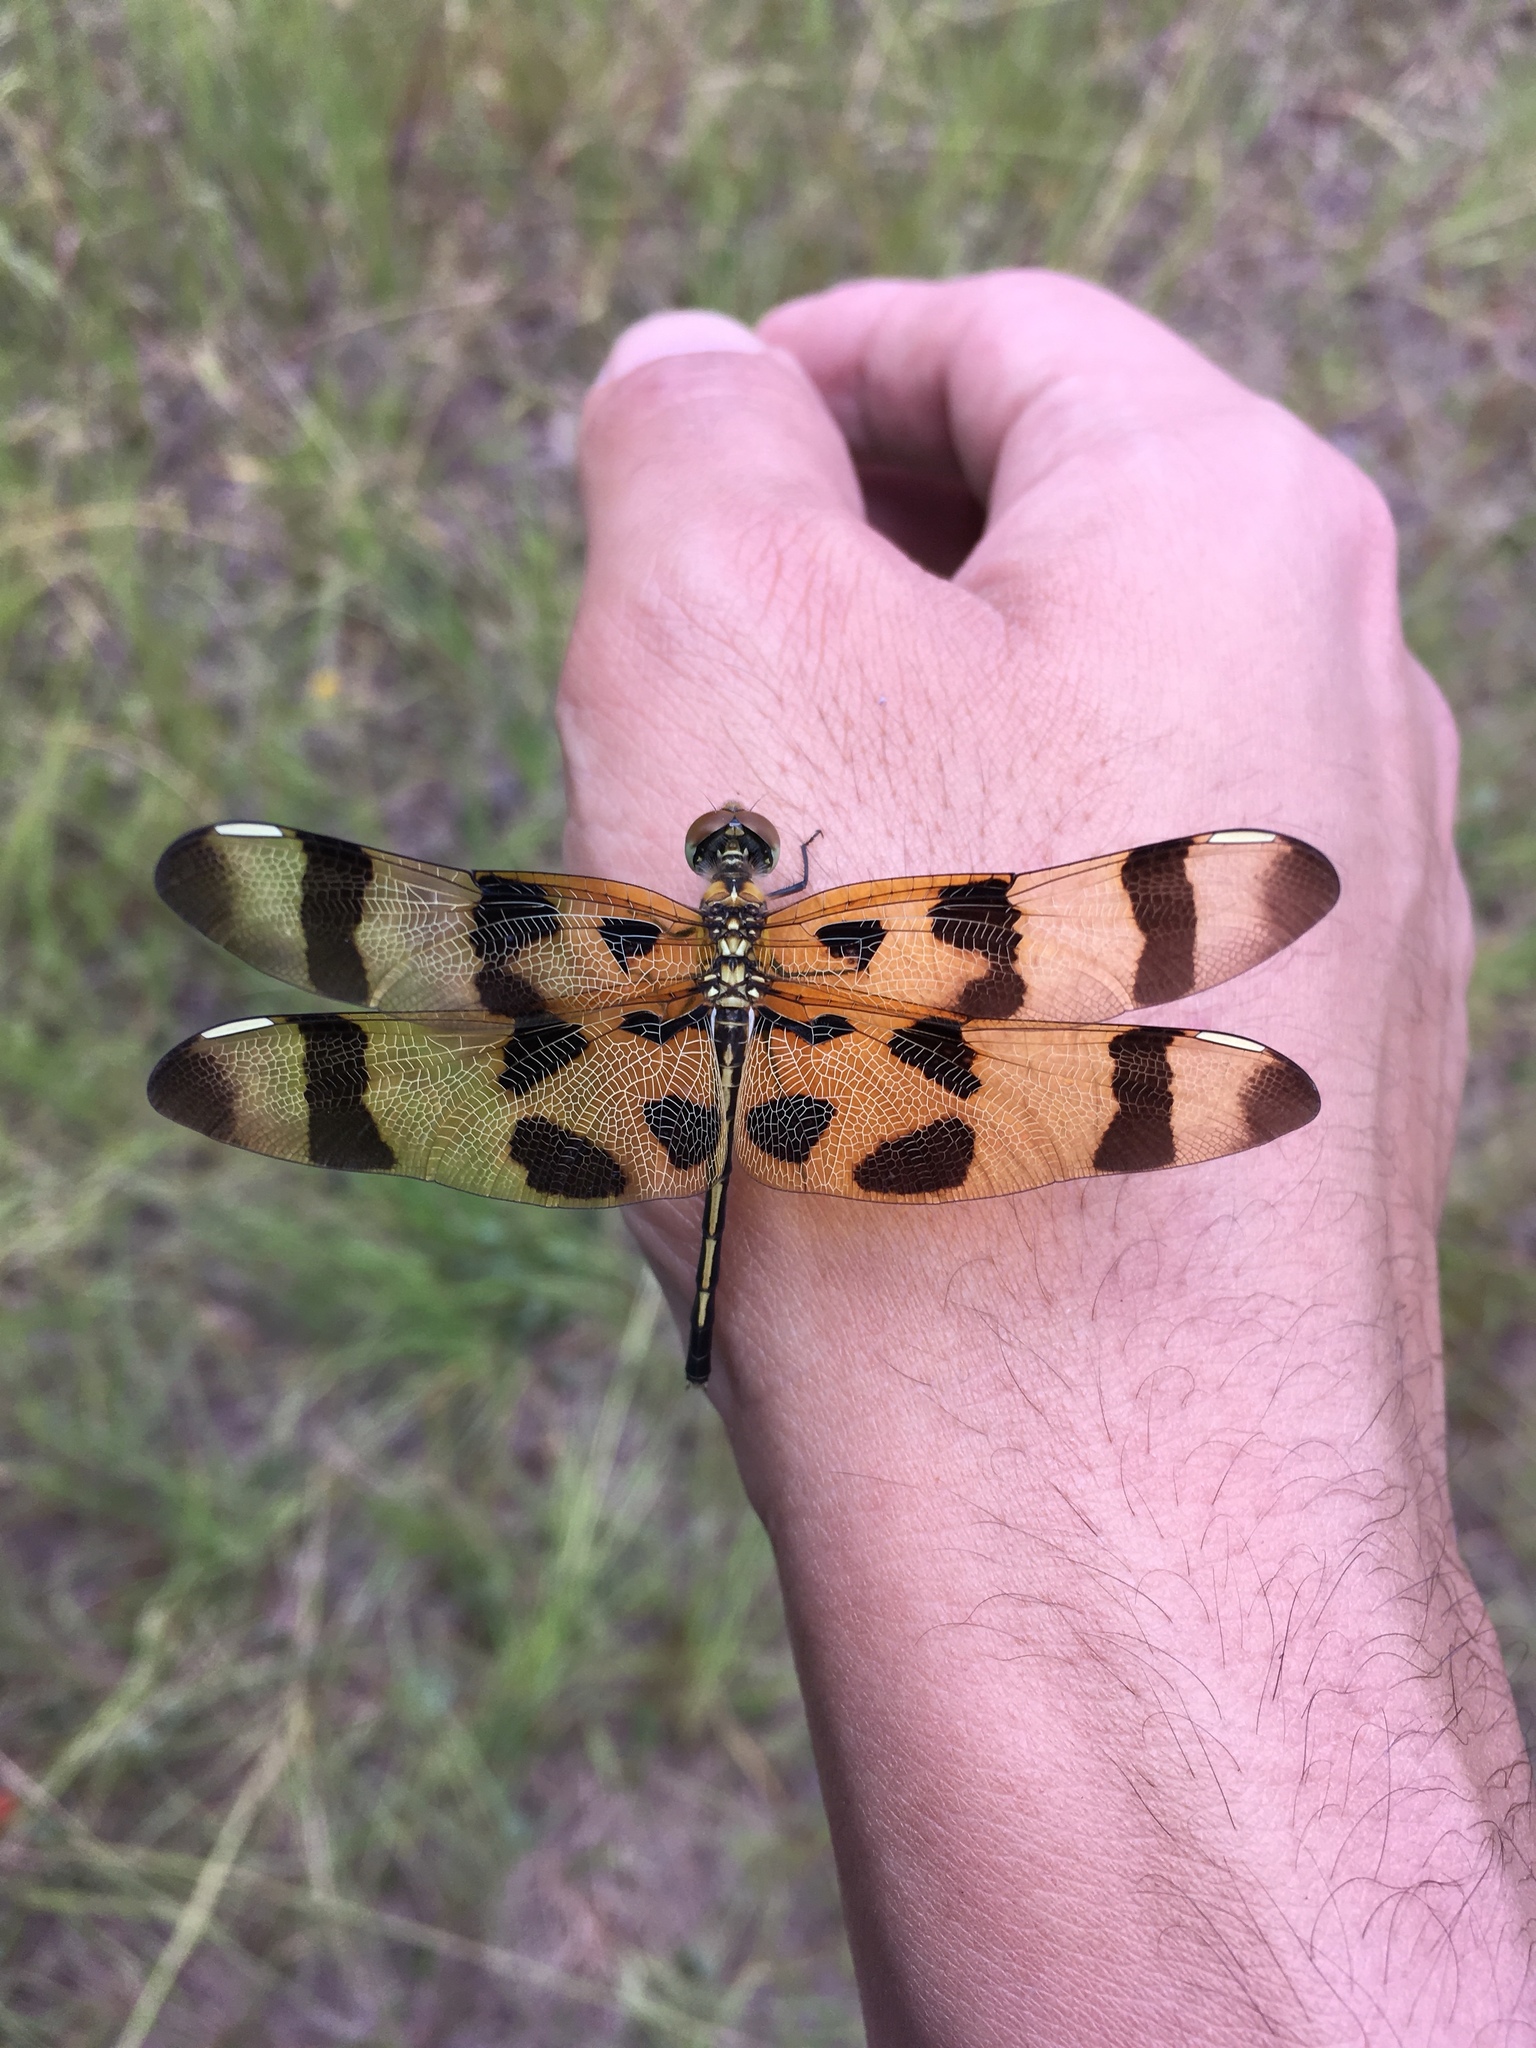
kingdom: Animalia
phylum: Arthropoda
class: Insecta
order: Odonata
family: Libellulidae
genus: Celithemis
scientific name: Celithemis eponina
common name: Halloween pennant
